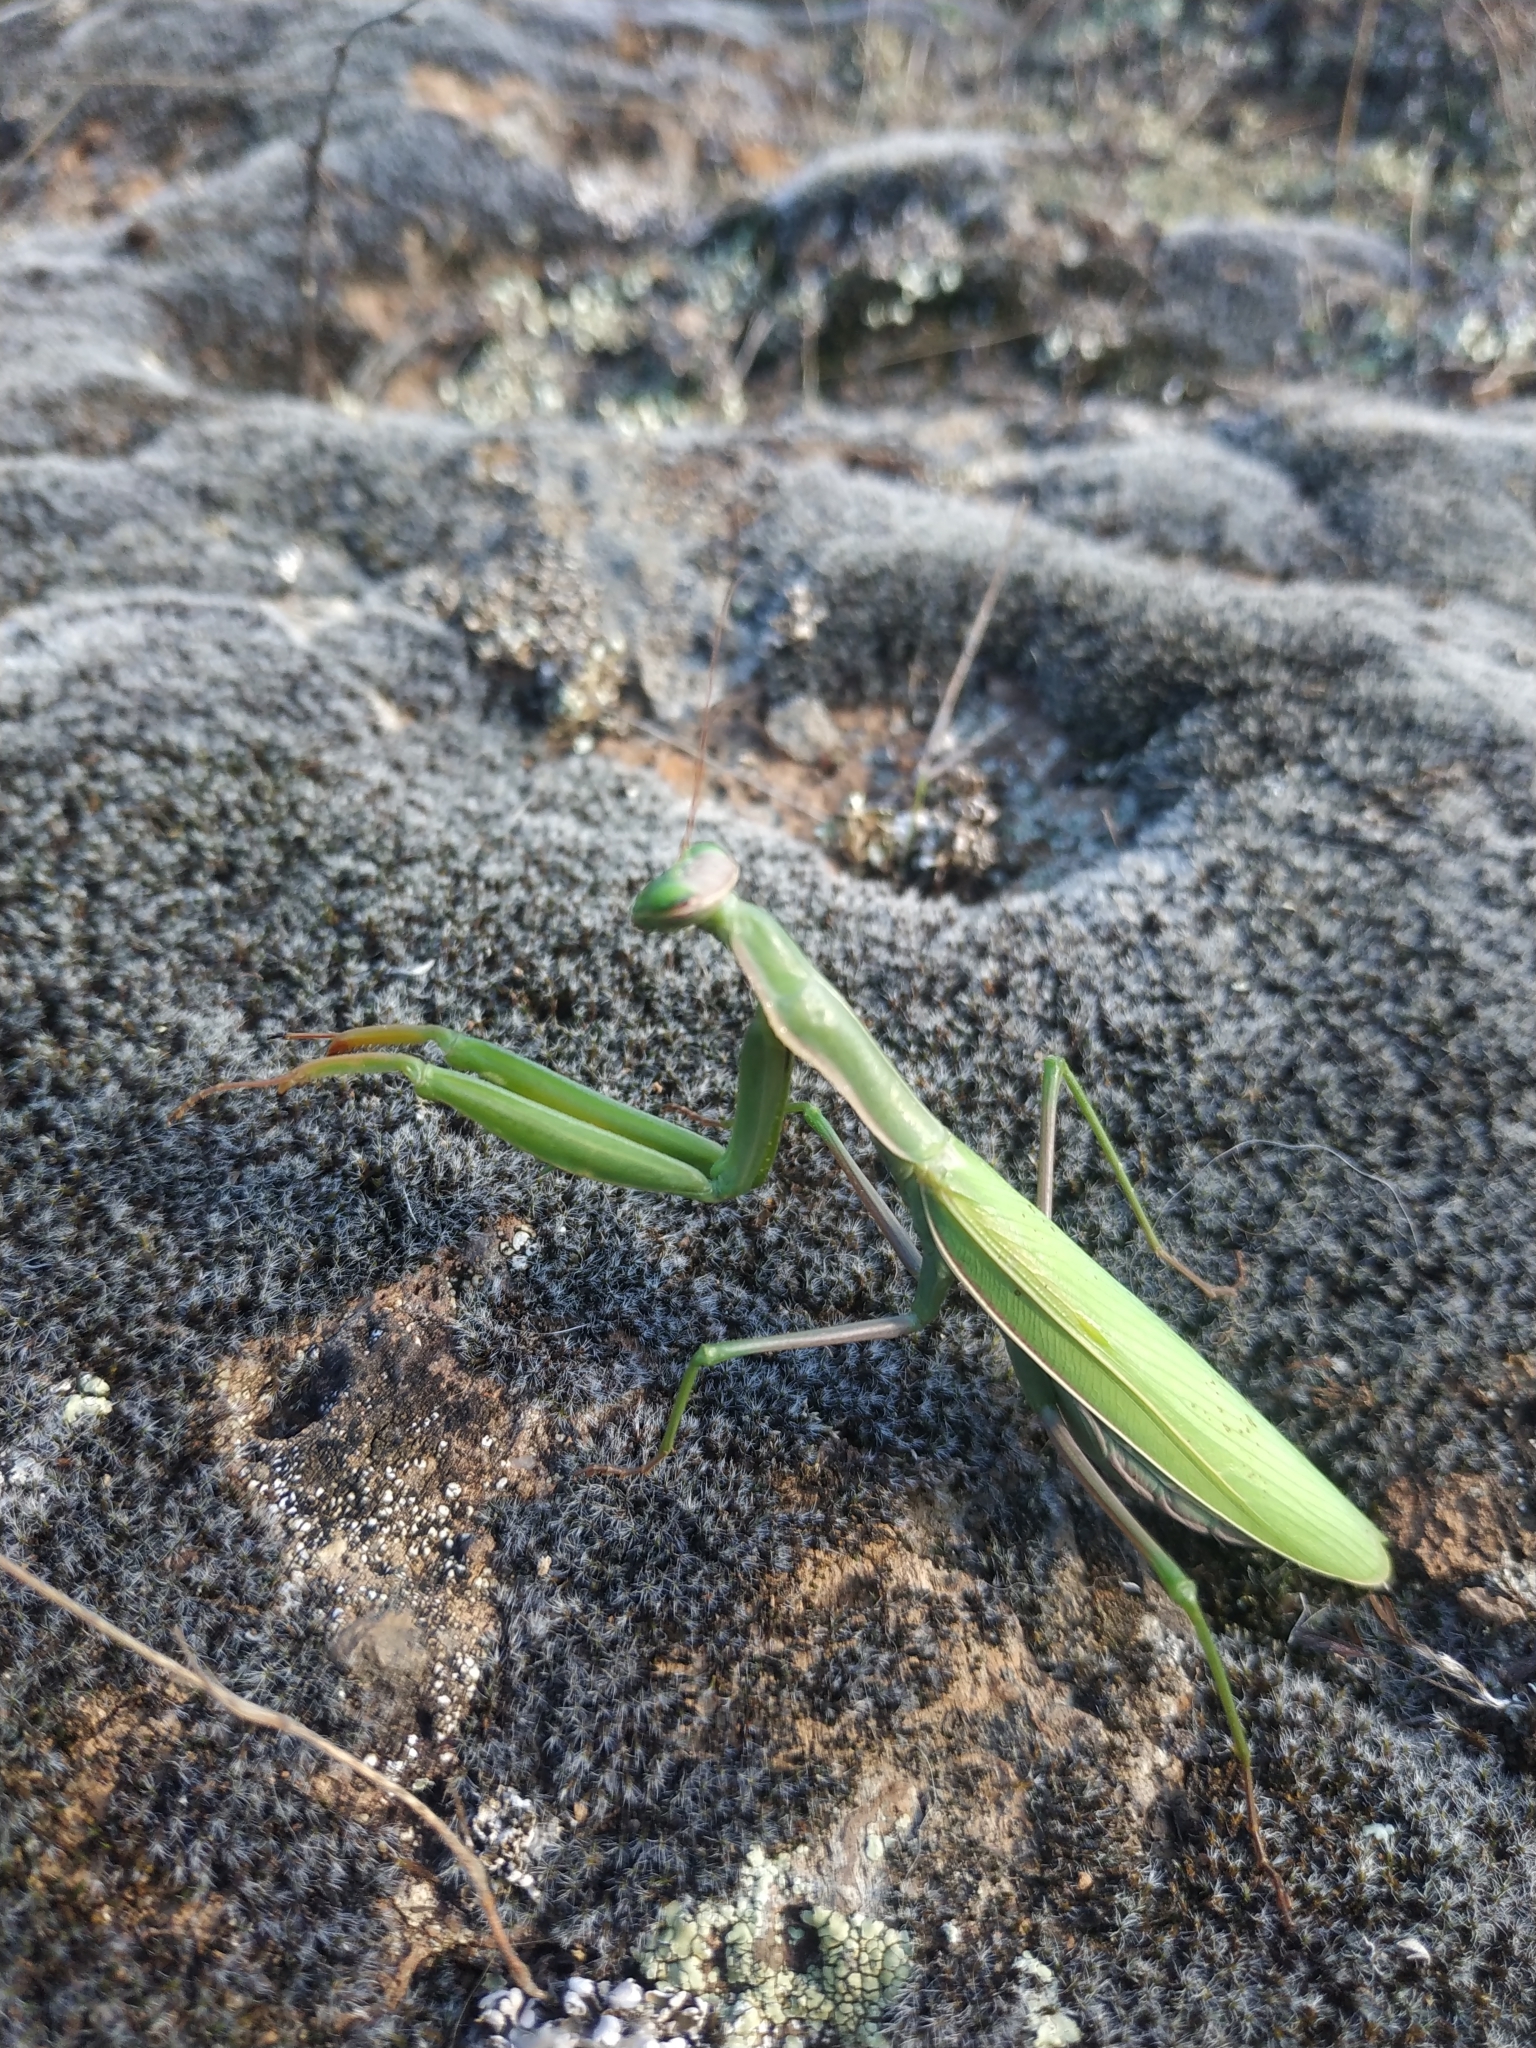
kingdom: Animalia
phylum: Arthropoda
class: Insecta
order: Mantodea
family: Mantidae
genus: Mantis
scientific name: Mantis religiosa
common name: Praying mantis
